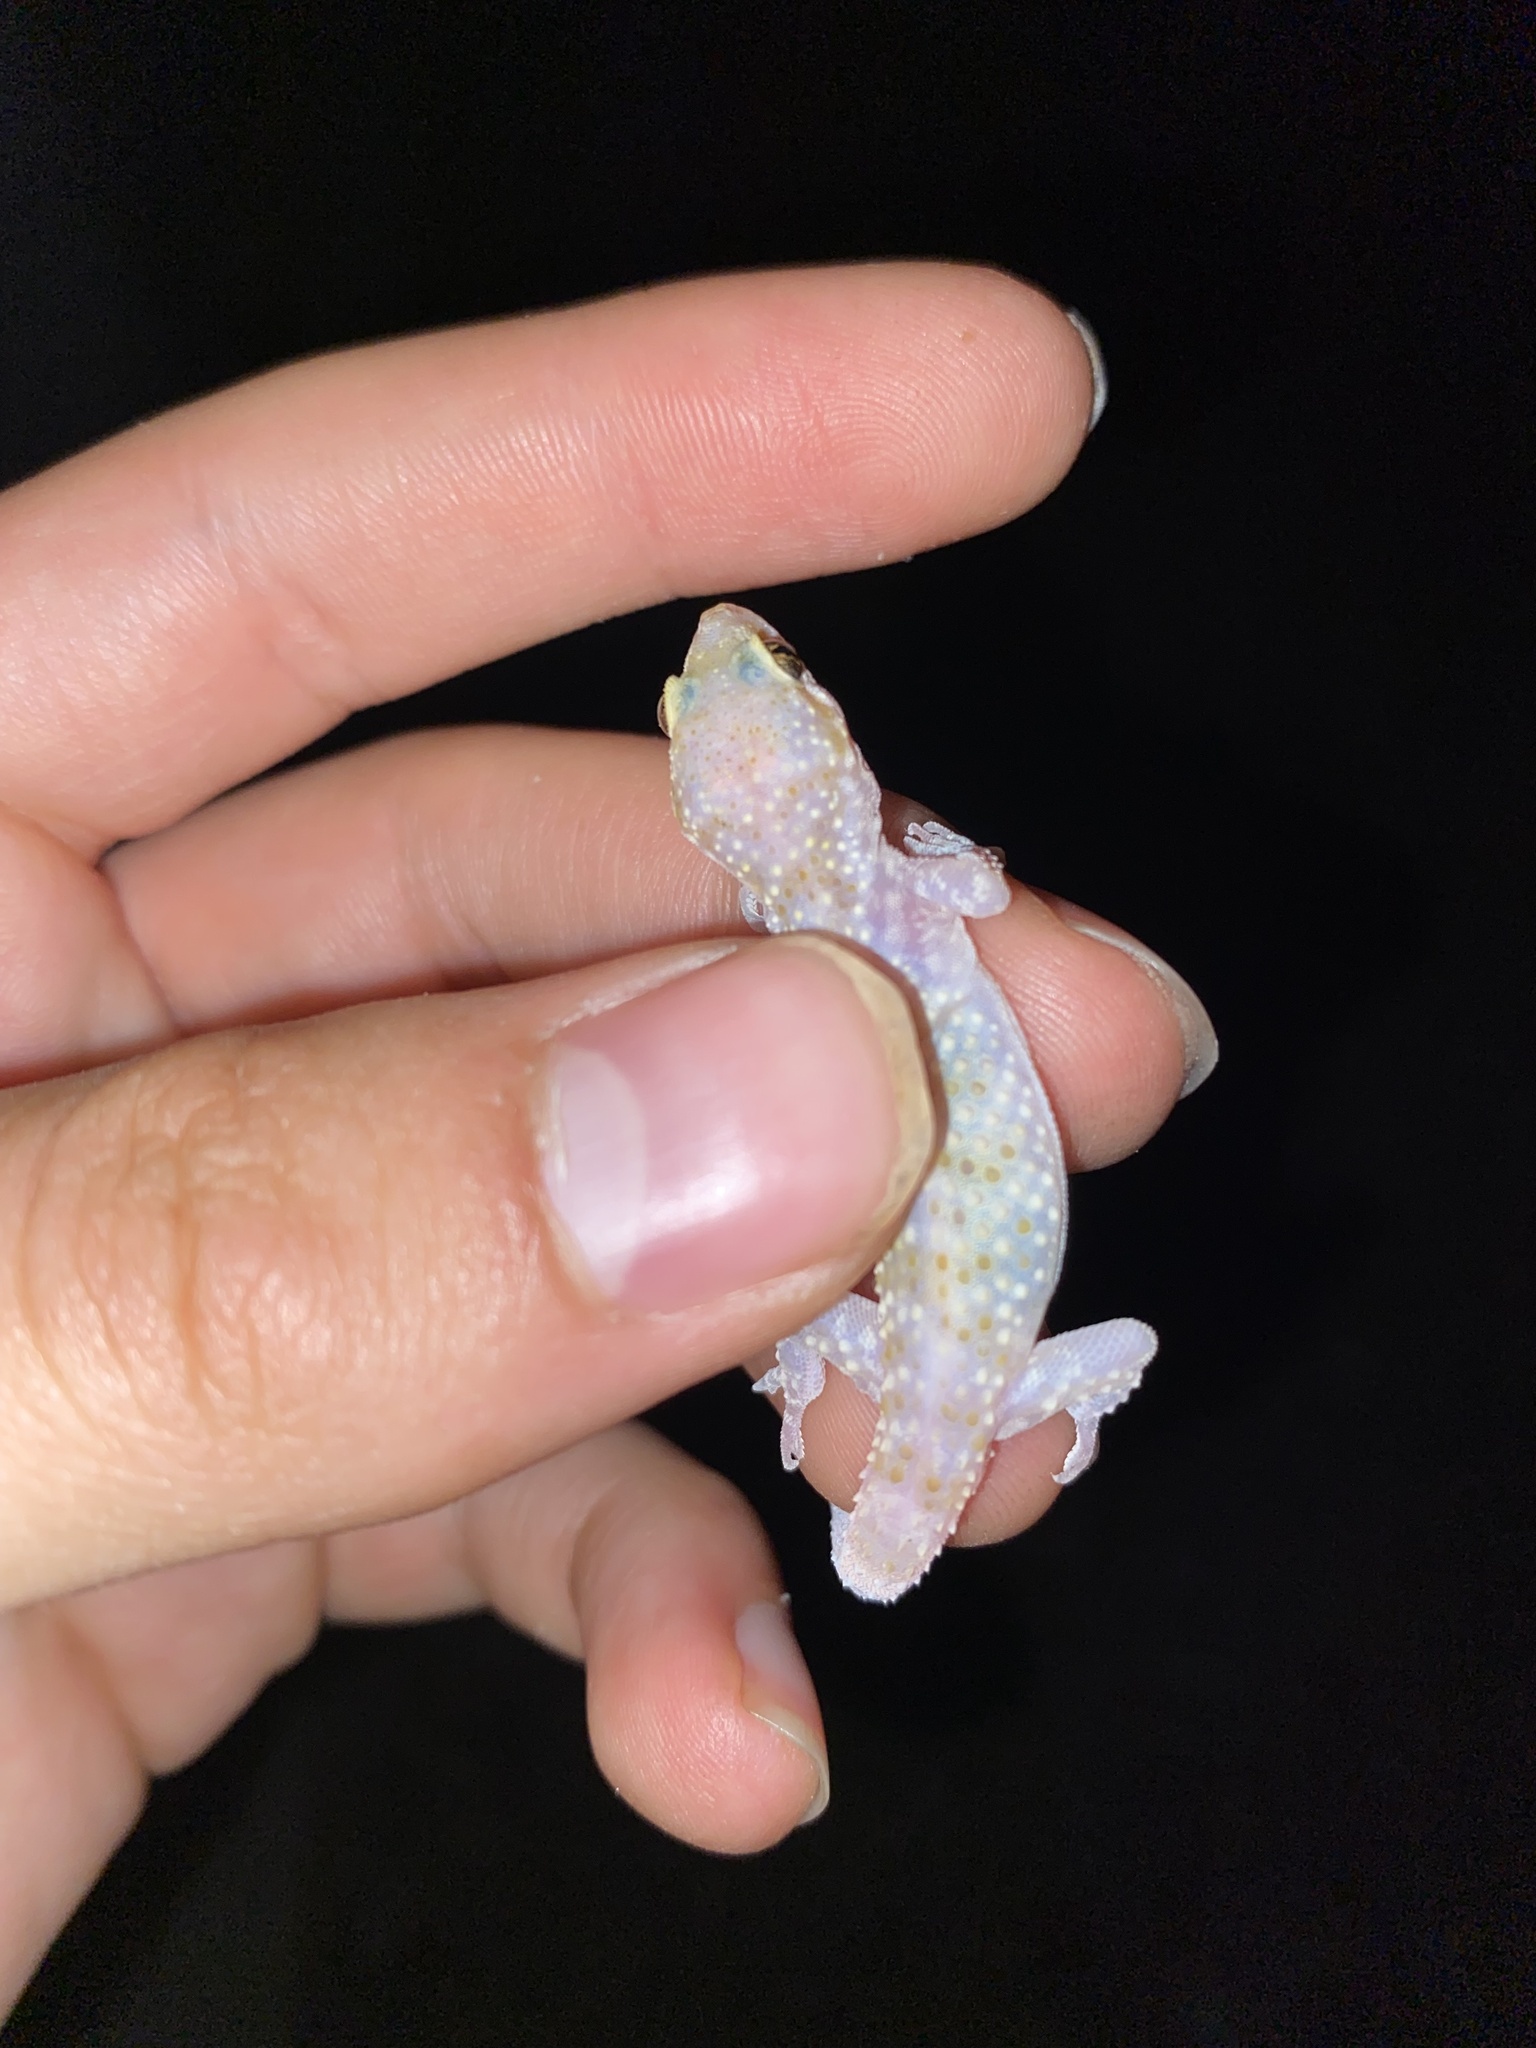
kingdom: Animalia
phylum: Chordata
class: Squamata
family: Gekkonidae
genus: Hemidactylus
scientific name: Hemidactylus turcicus
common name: Turkish gecko
